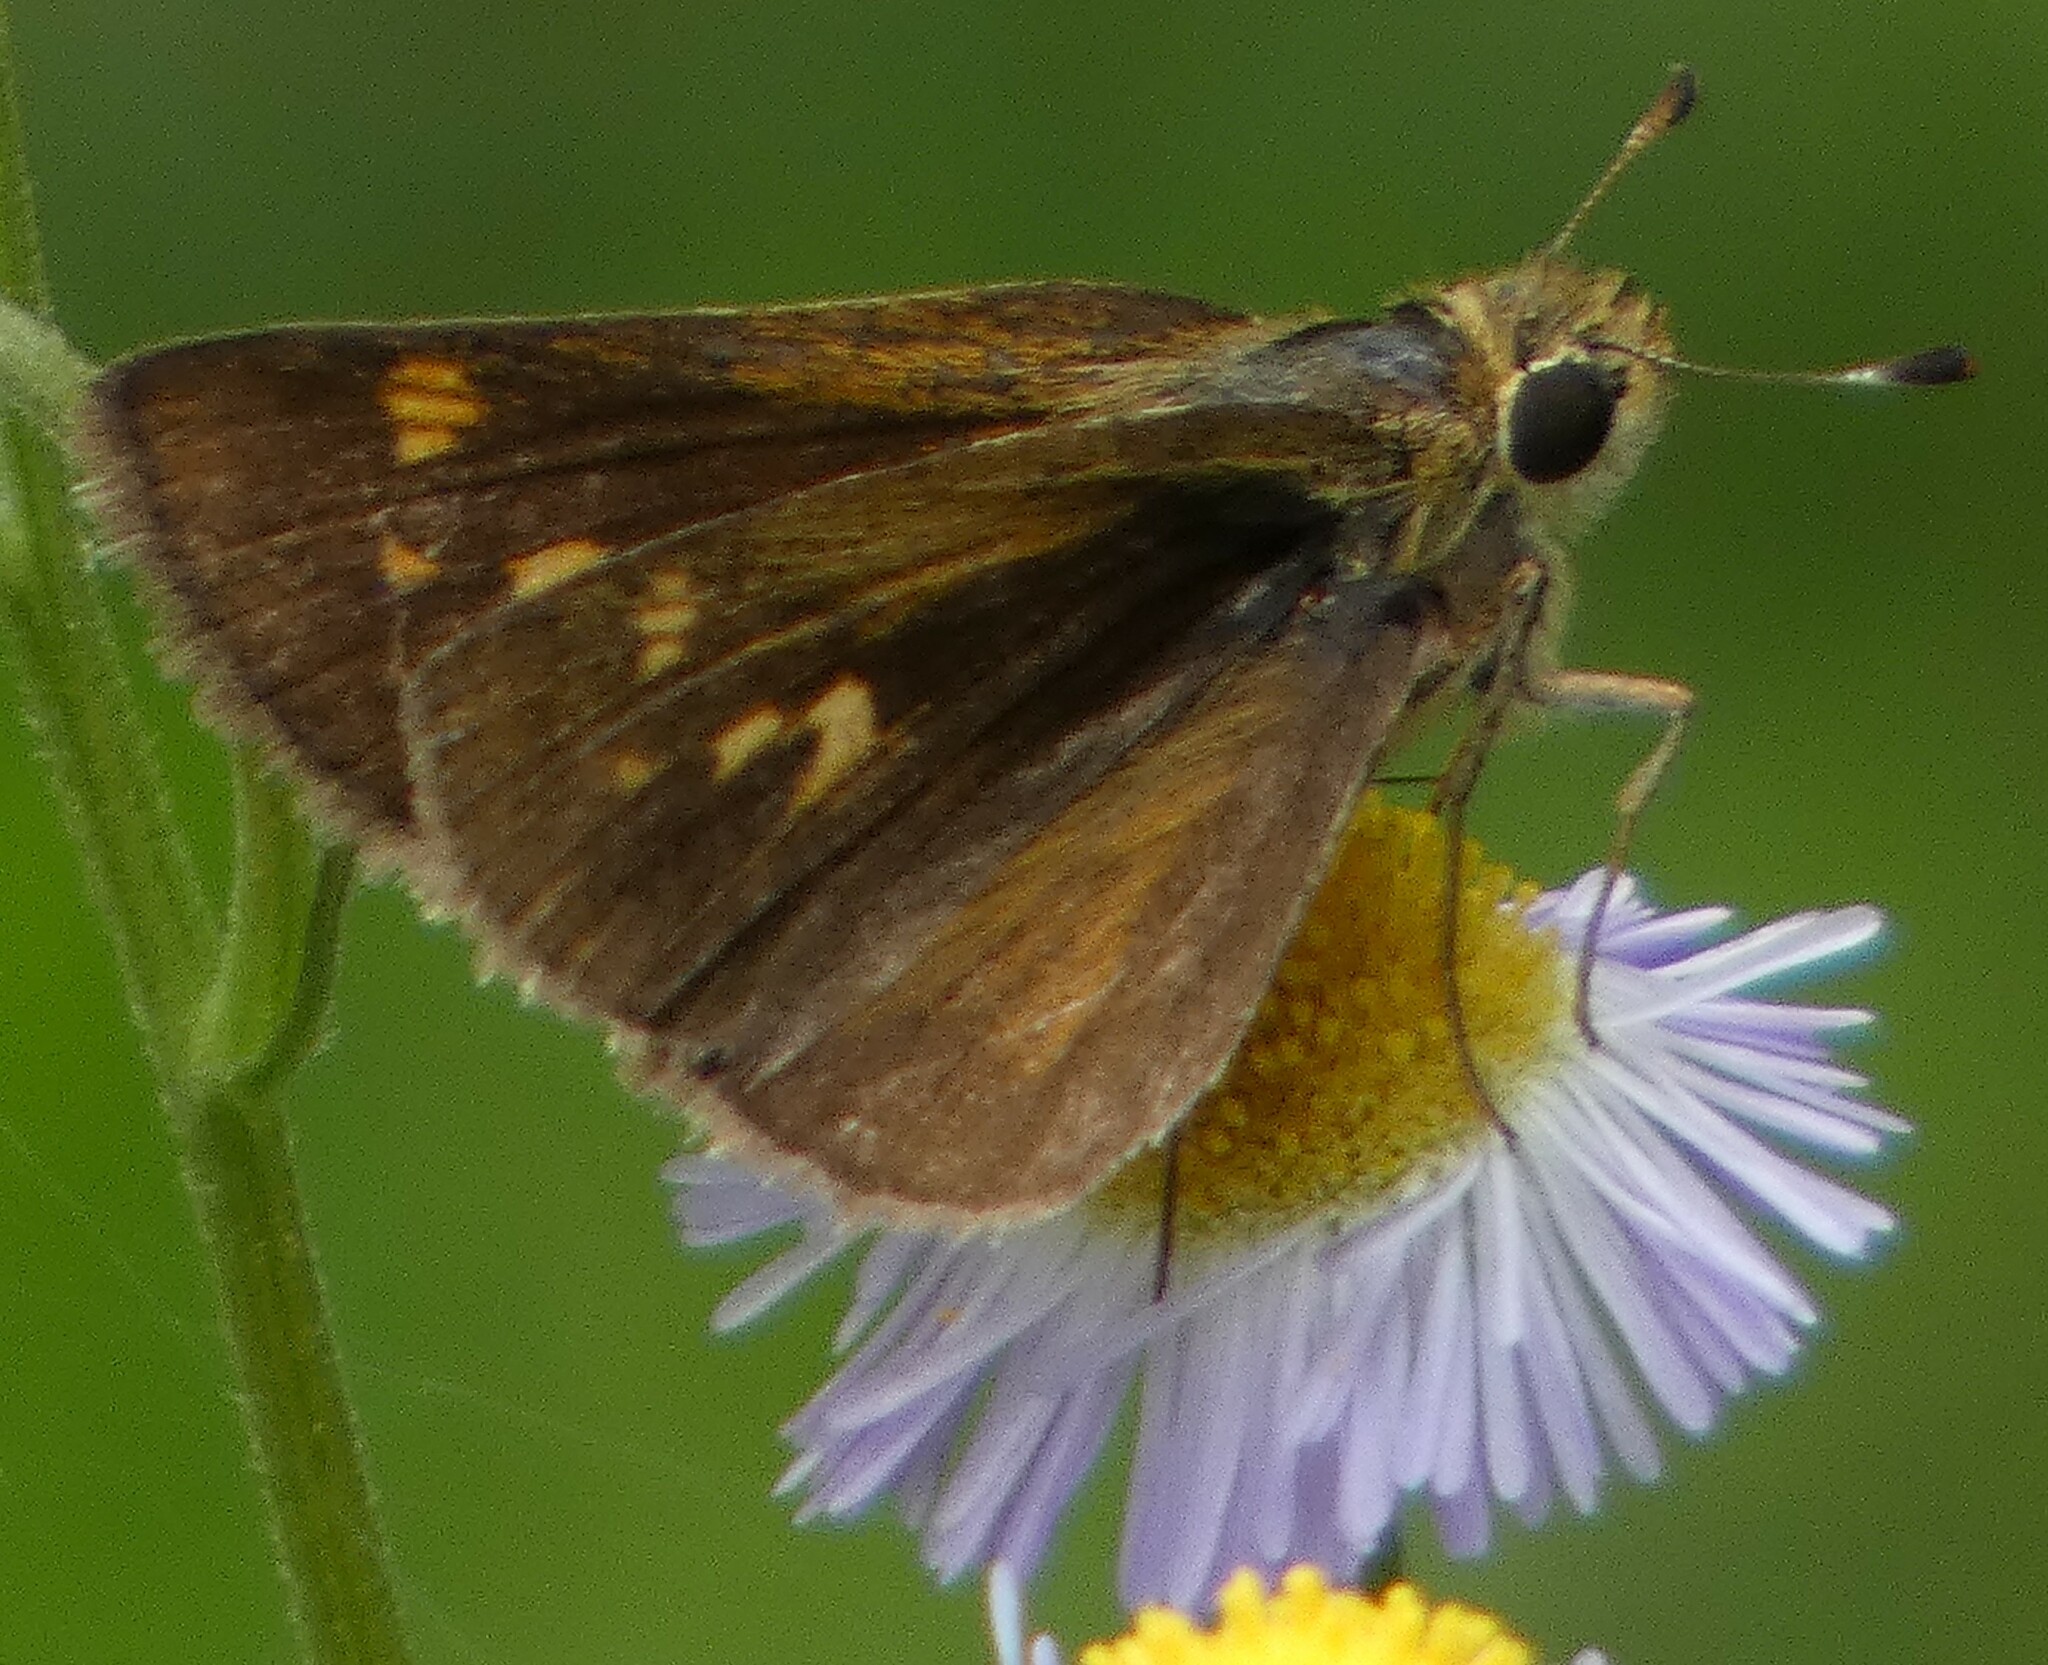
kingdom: Animalia
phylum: Arthropoda
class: Insecta
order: Lepidoptera
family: Hesperiidae
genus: Polites
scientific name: Polites vibex
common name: Whirlabout
